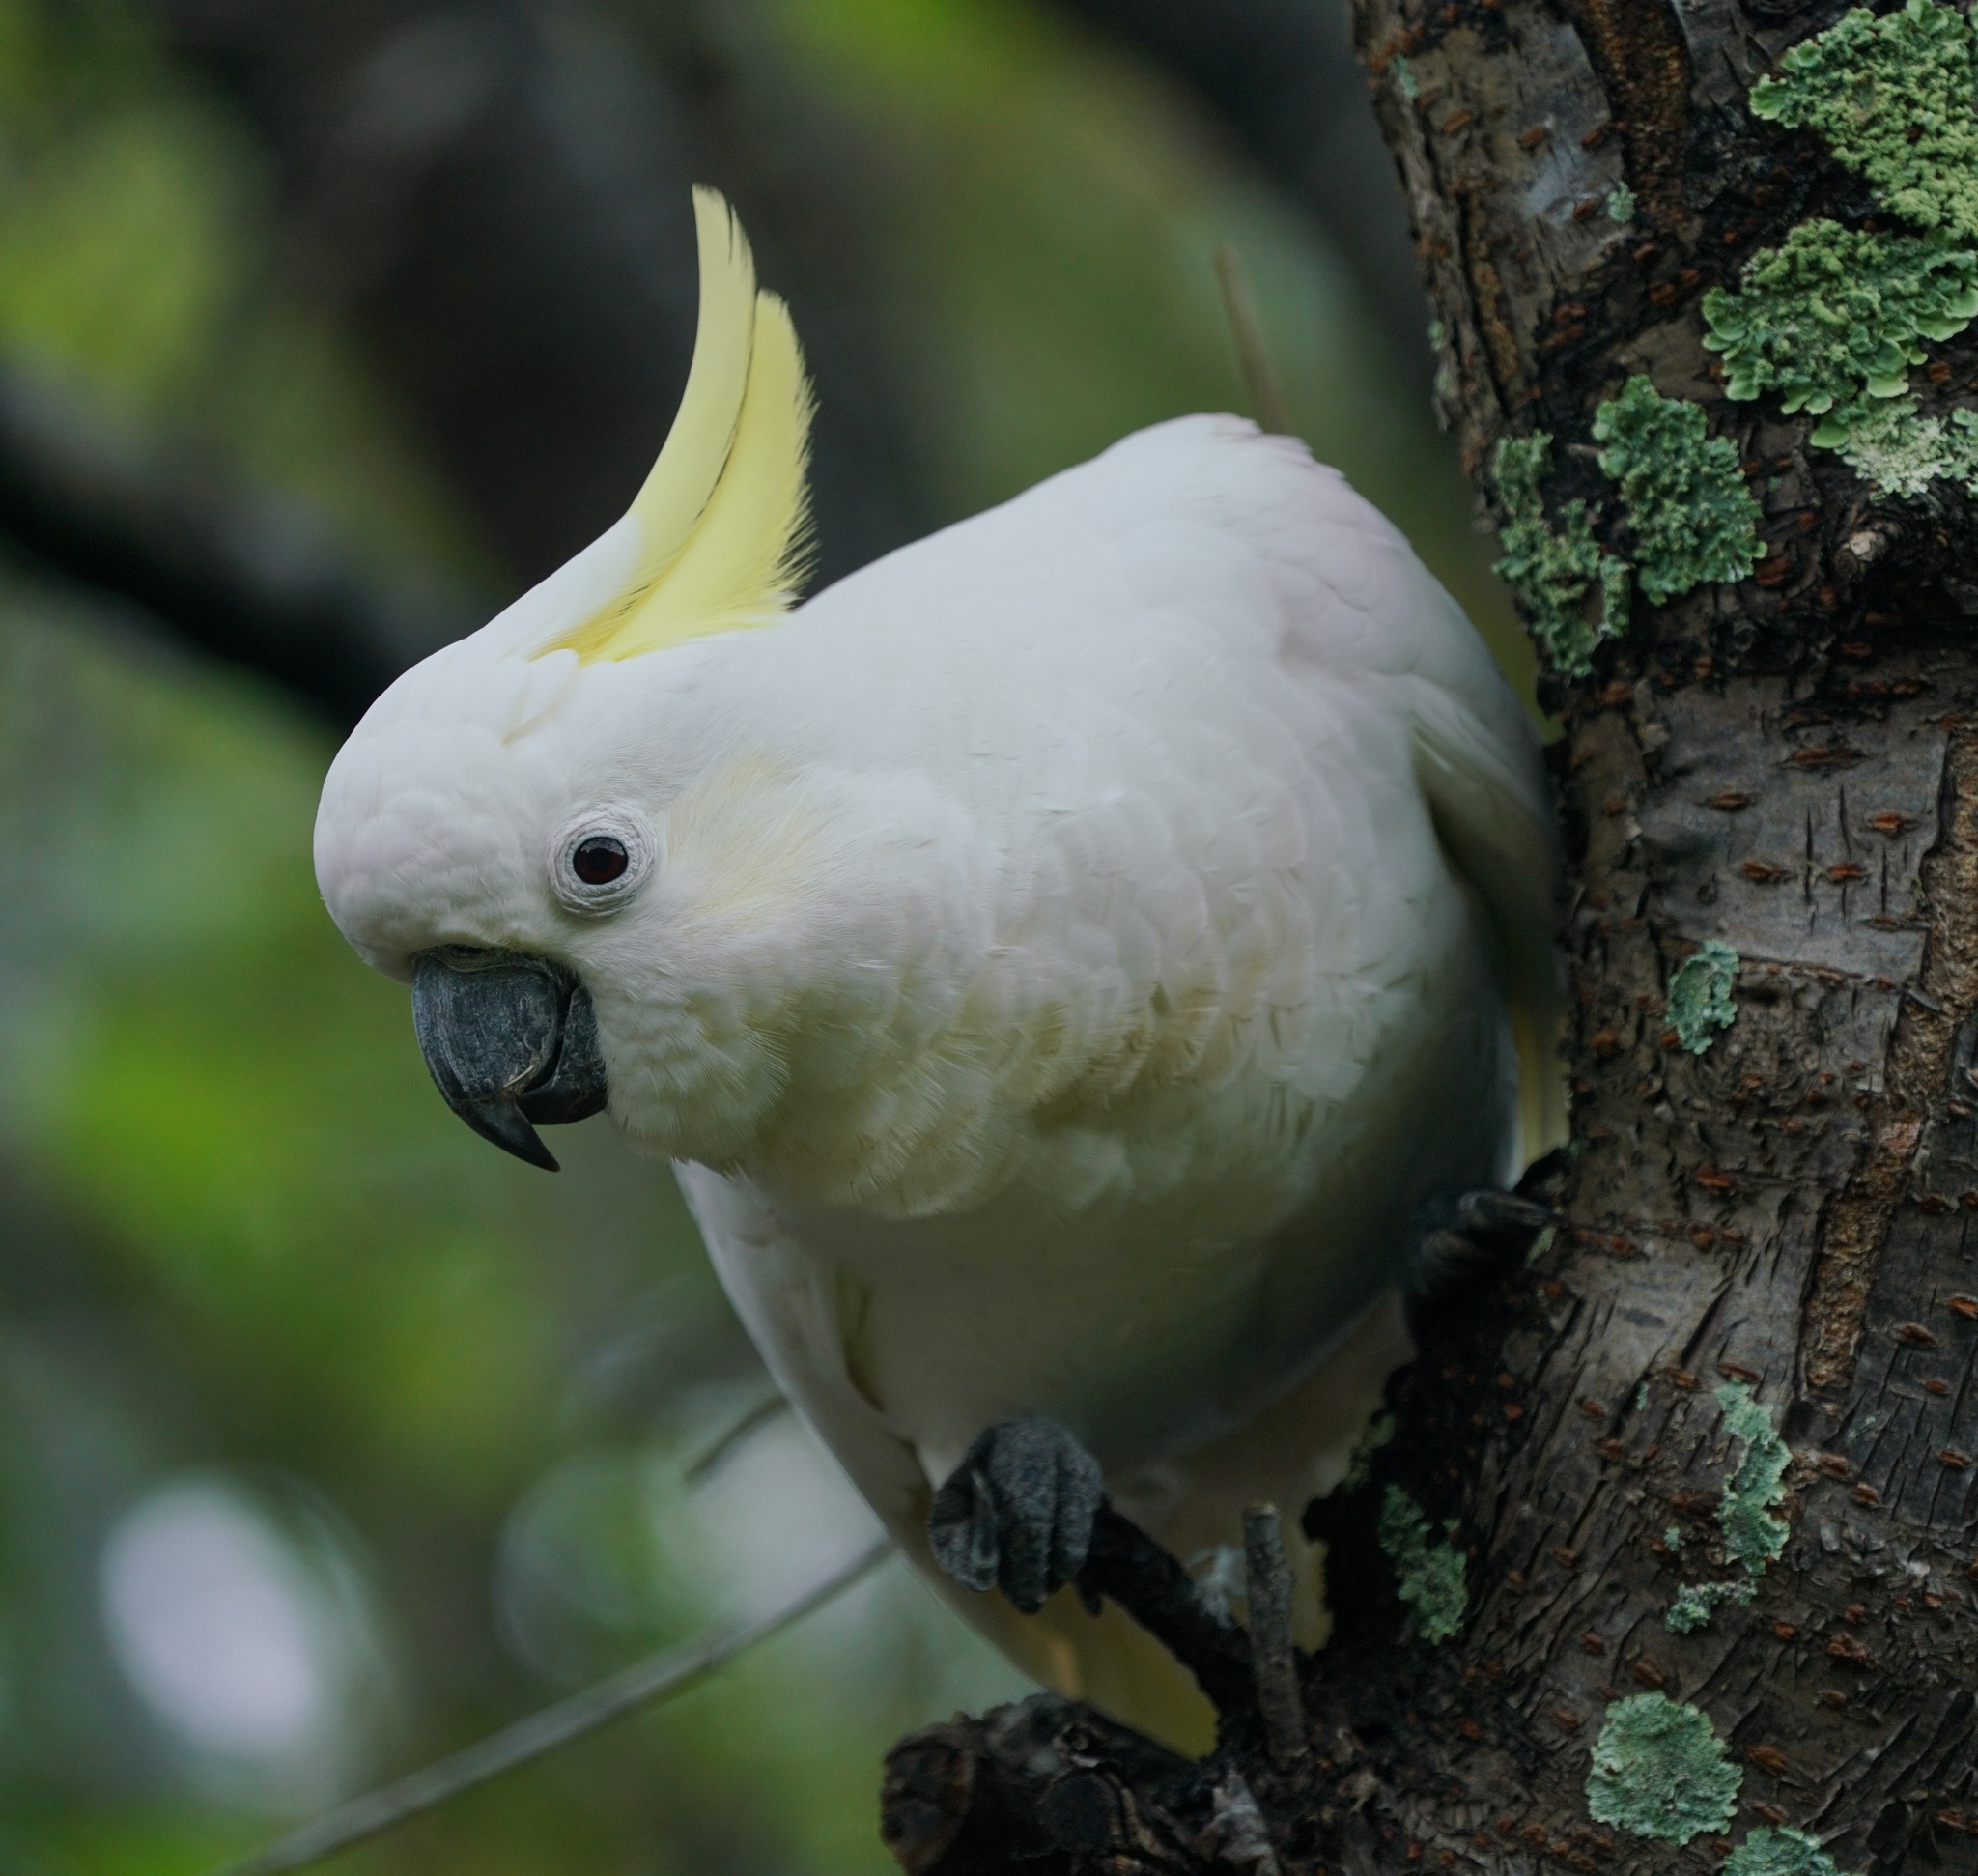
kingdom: Animalia
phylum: Chordata
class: Aves
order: Psittaciformes
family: Psittacidae
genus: Cacatua
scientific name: Cacatua galerita
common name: Sulphur-crested cockatoo
